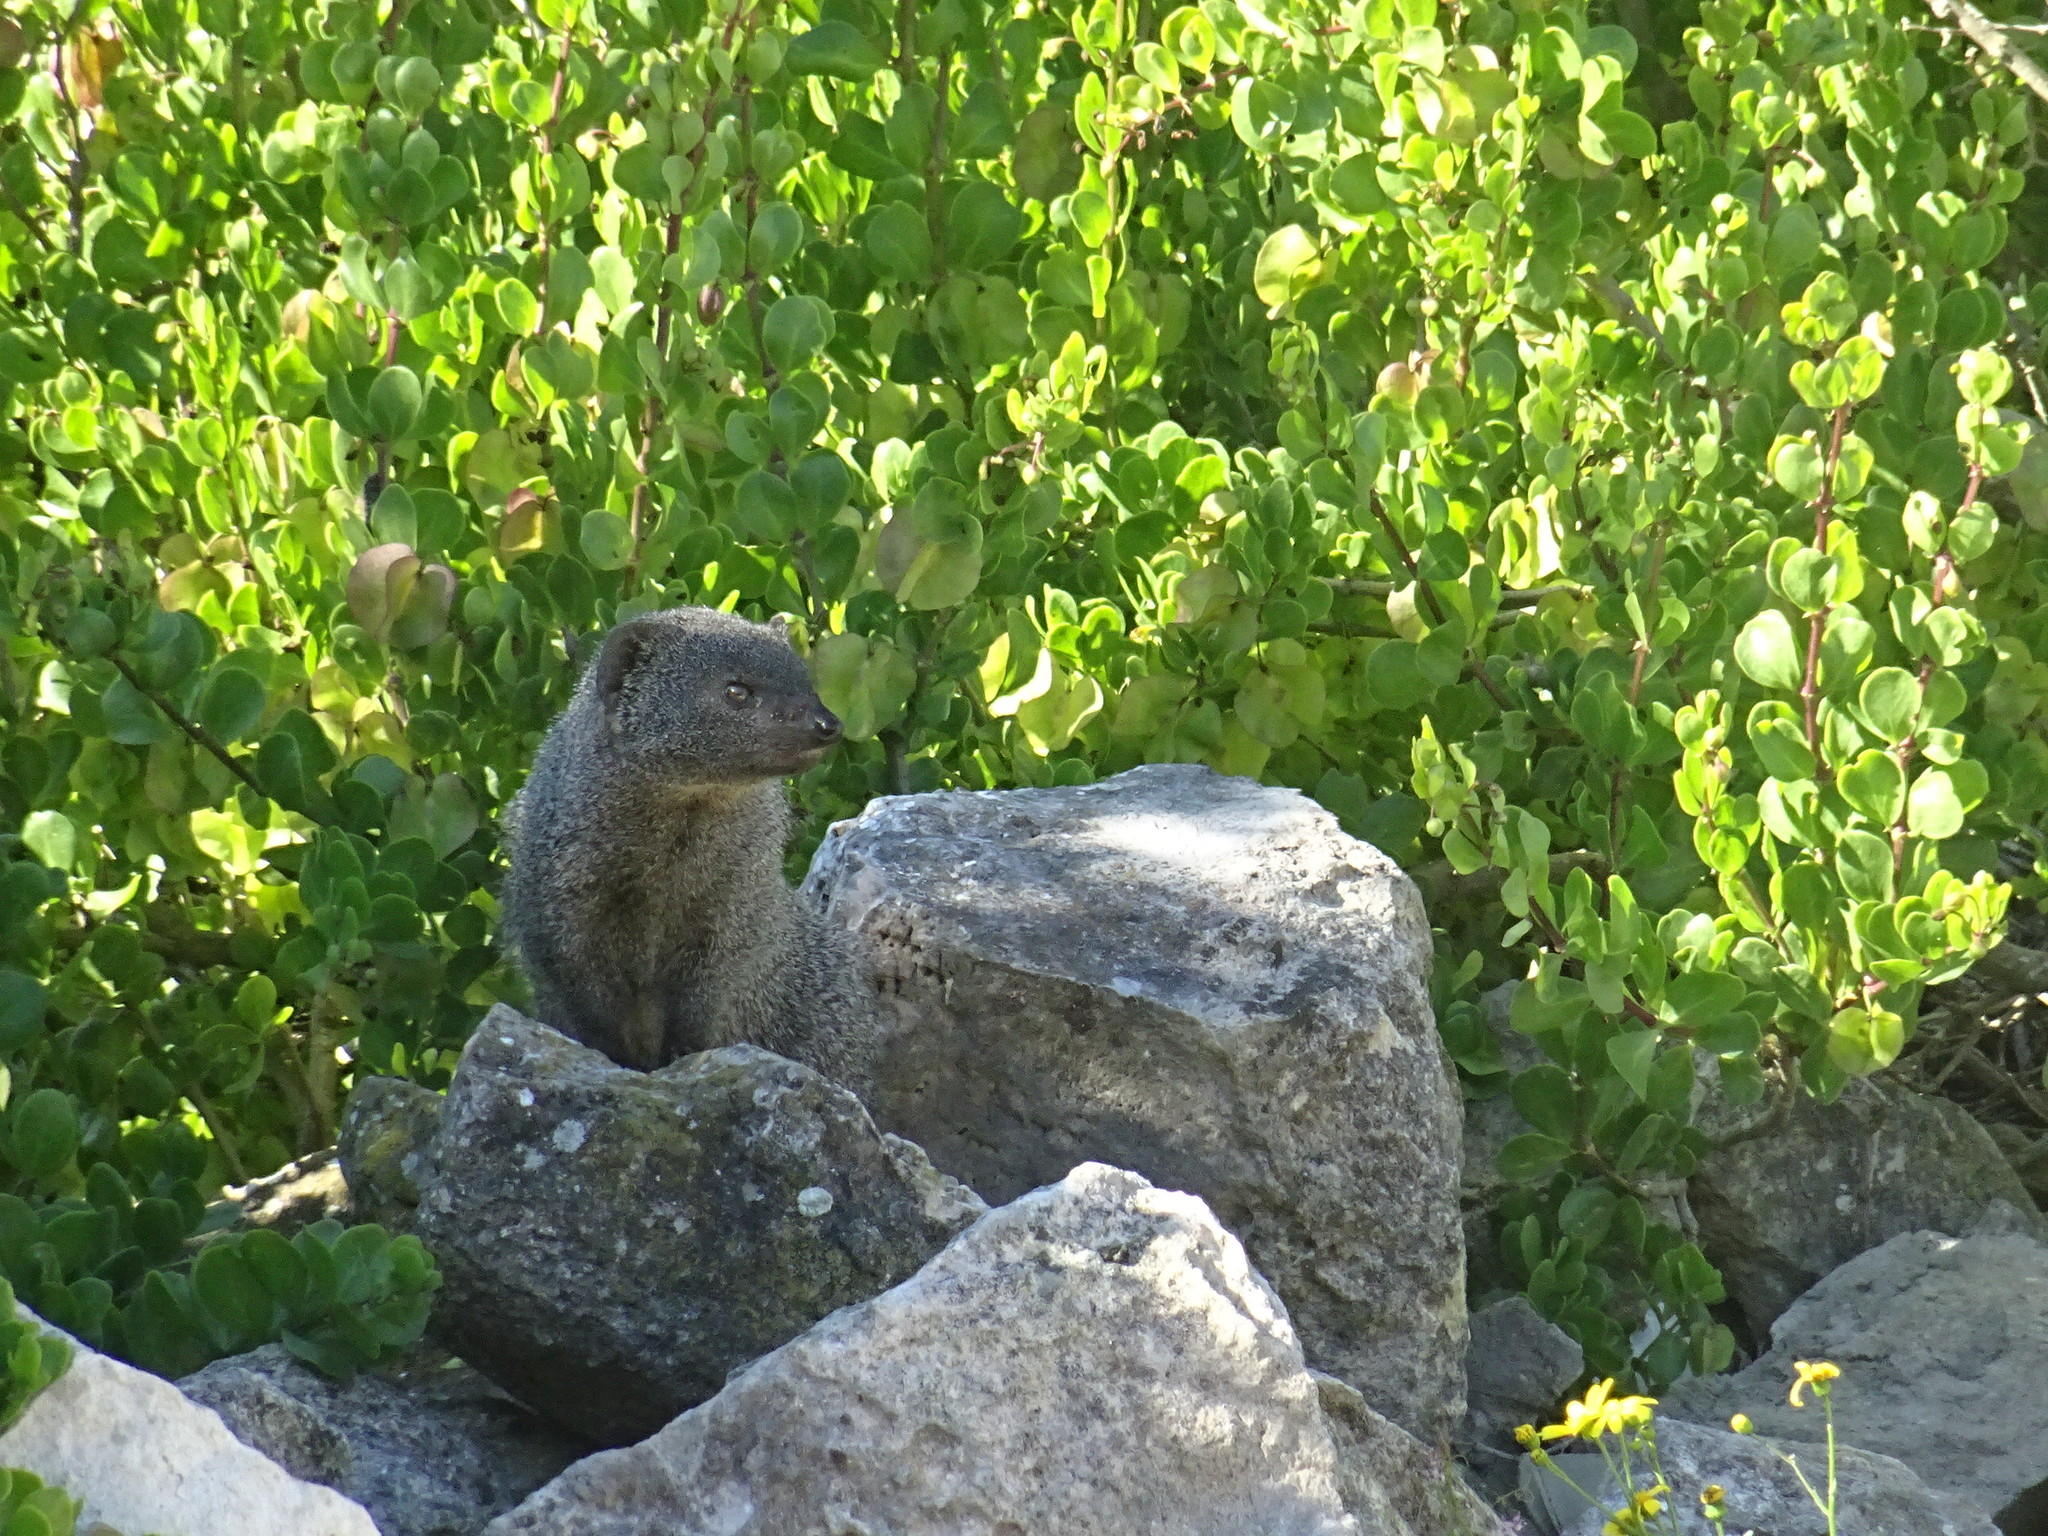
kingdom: Animalia
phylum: Chordata
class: Mammalia
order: Carnivora
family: Herpestidae
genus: Galerella
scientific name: Galerella pulverulenta
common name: Cape gray mongoose
